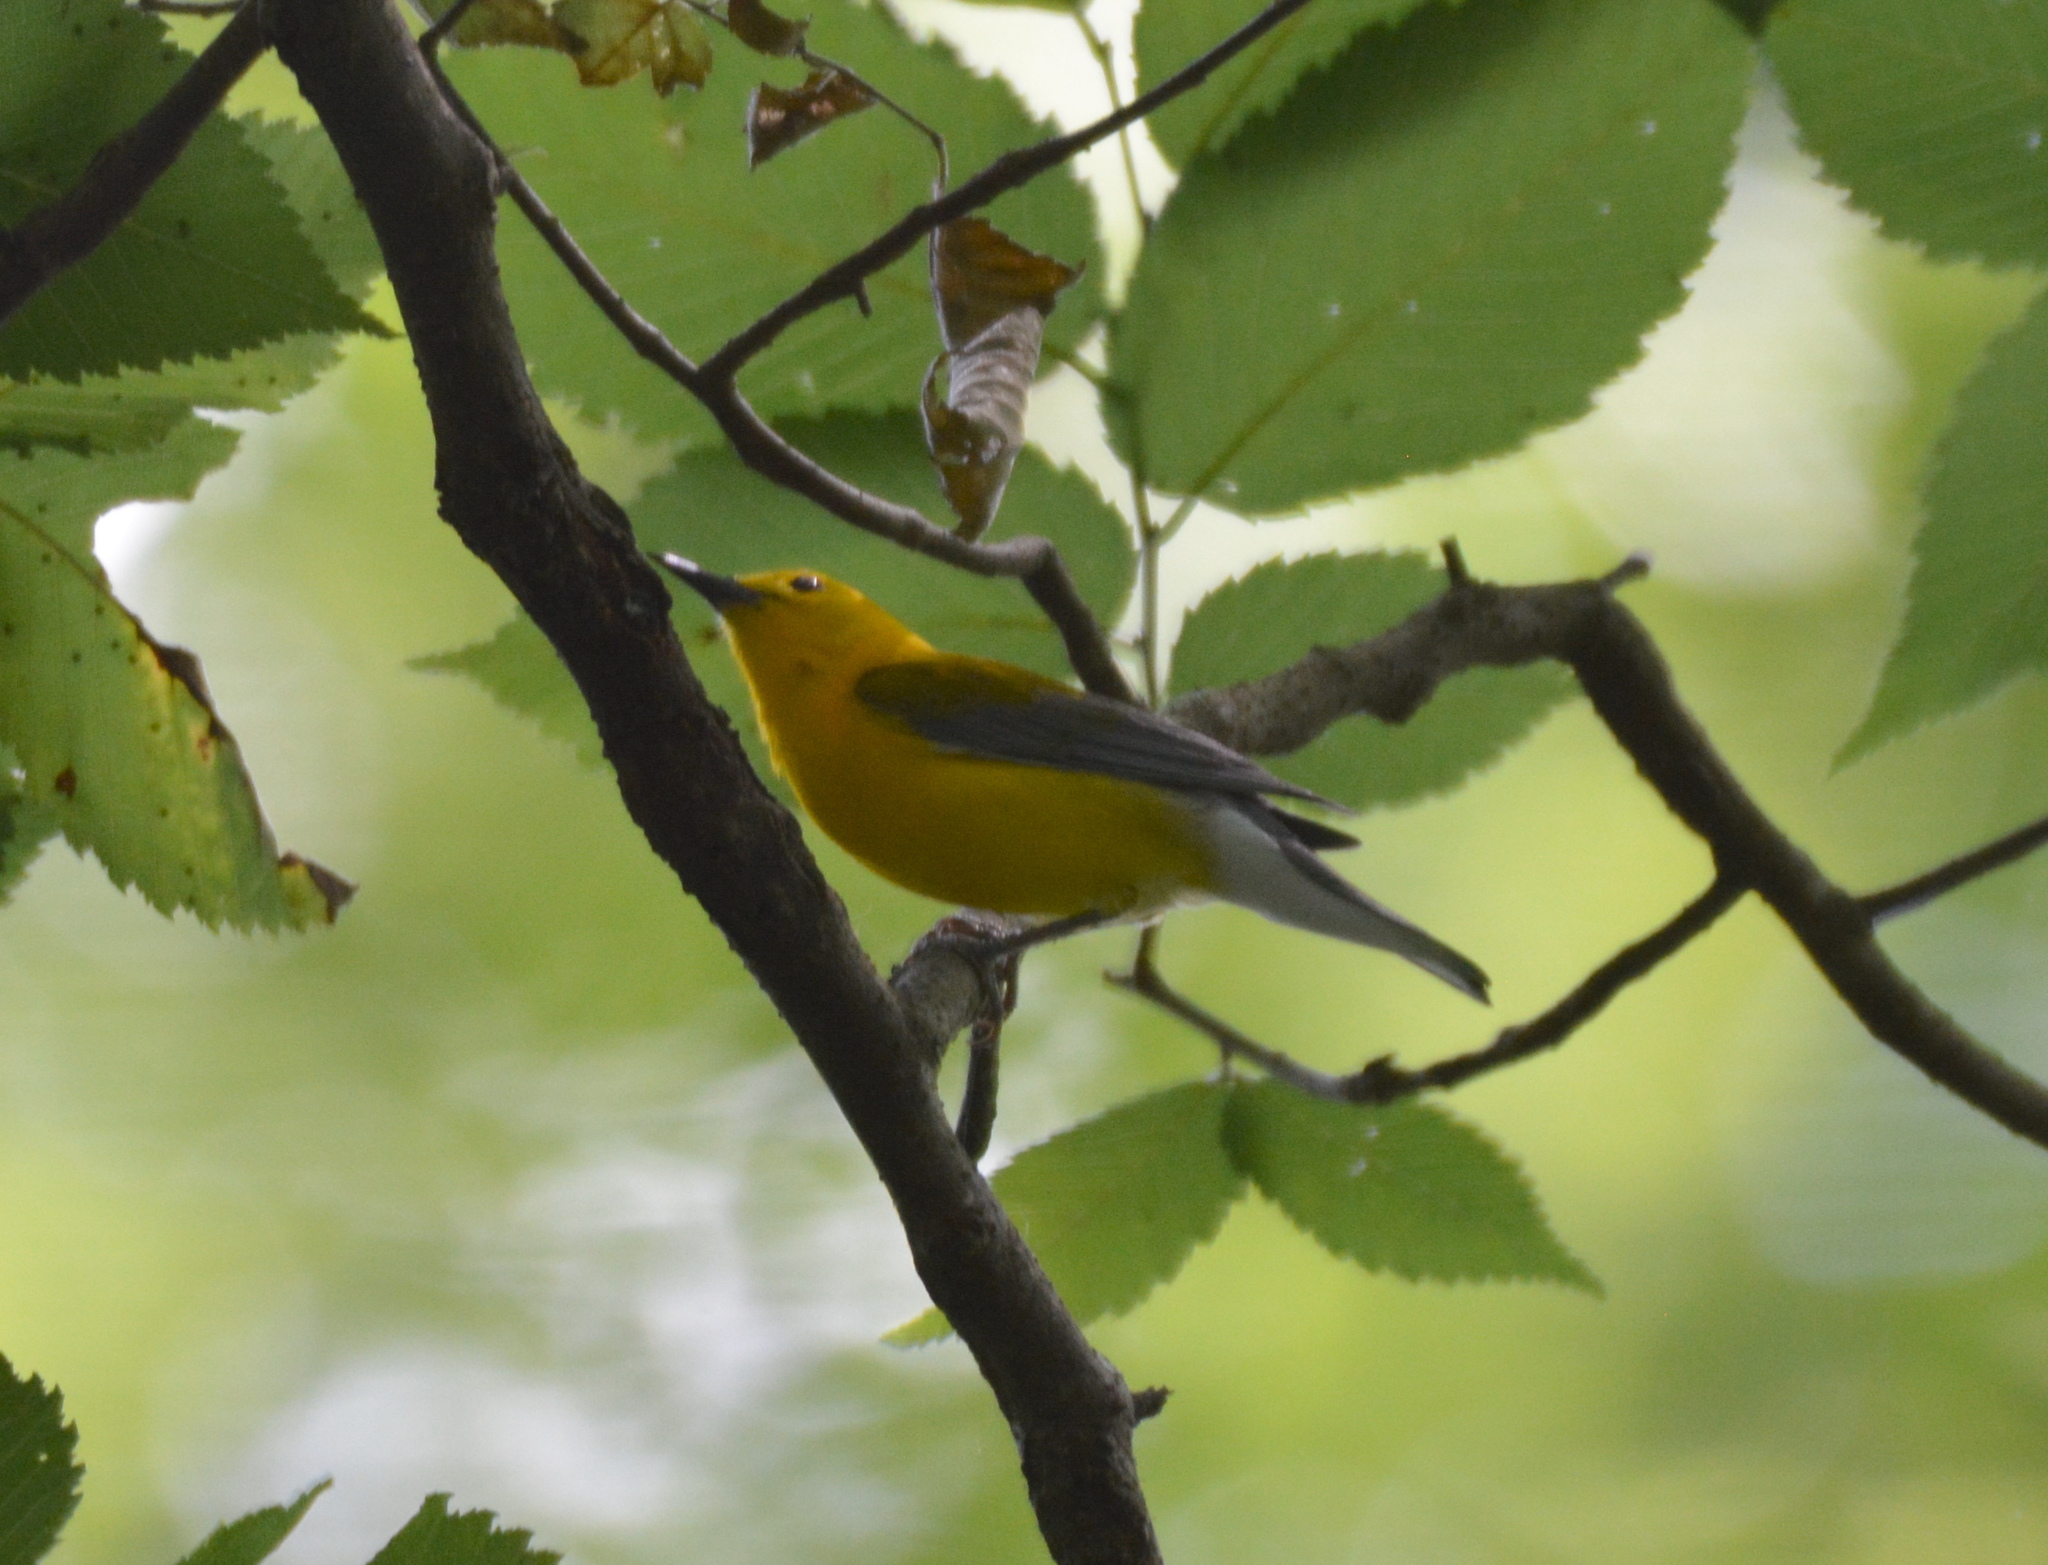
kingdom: Animalia
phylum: Chordata
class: Aves
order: Passeriformes
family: Parulidae
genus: Protonotaria
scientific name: Protonotaria citrea
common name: Prothonotary warbler
